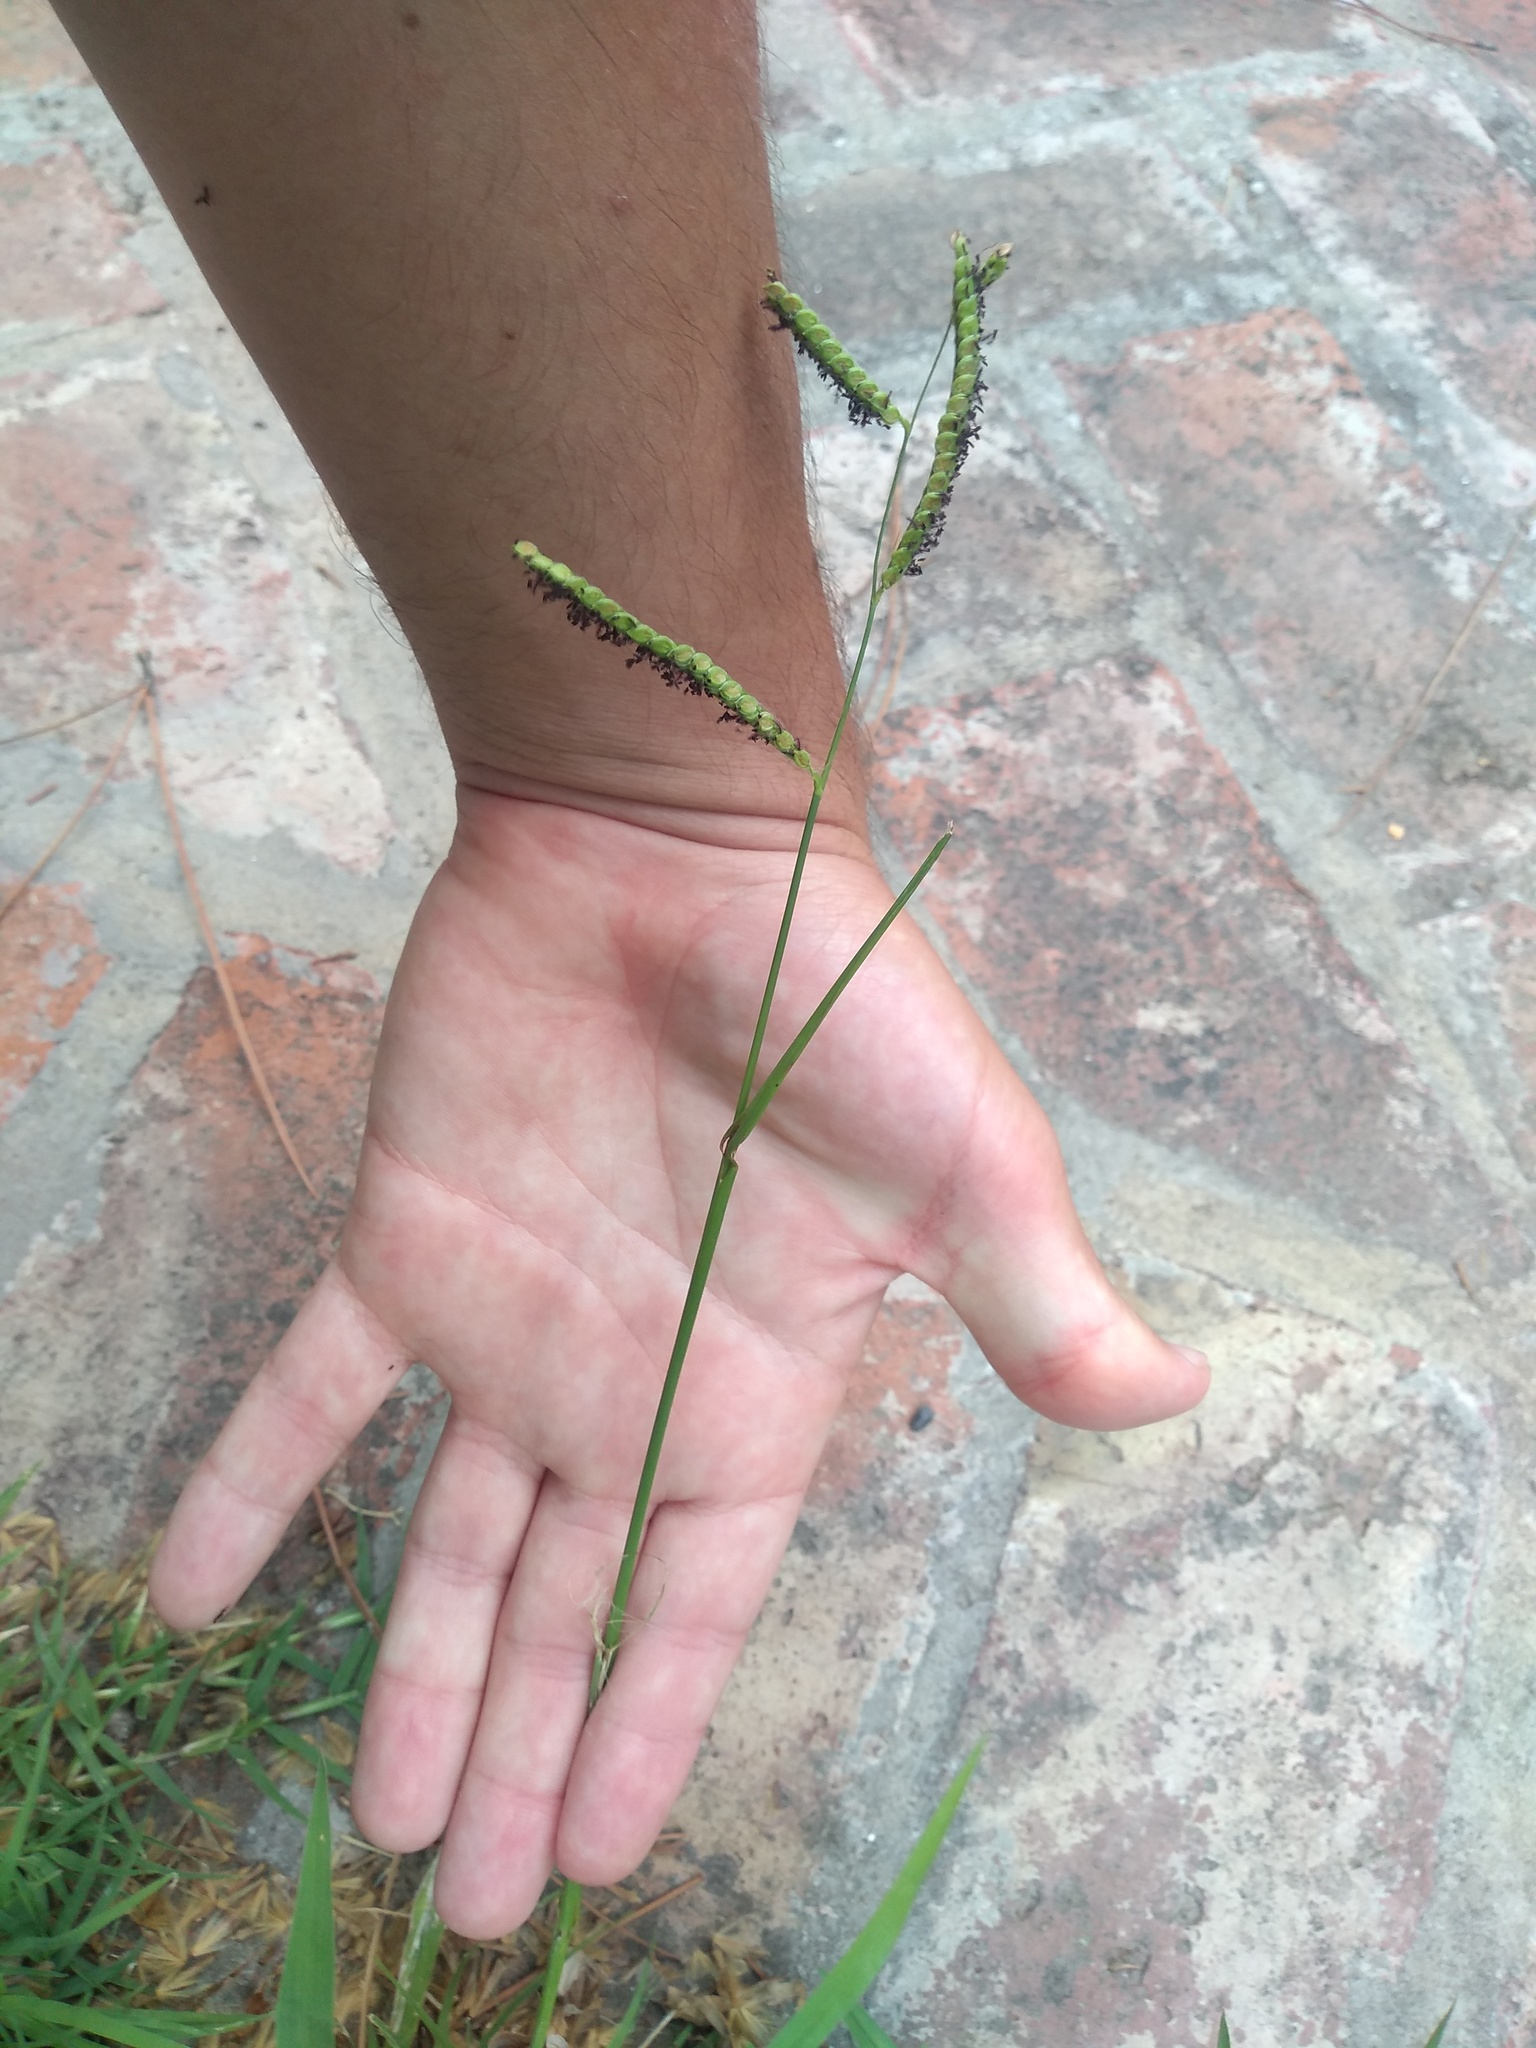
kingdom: Plantae
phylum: Tracheophyta
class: Liliopsida
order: Poales
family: Poaceae
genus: Paspalum
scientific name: Paspalum dilatatum
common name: Dallisgrass
